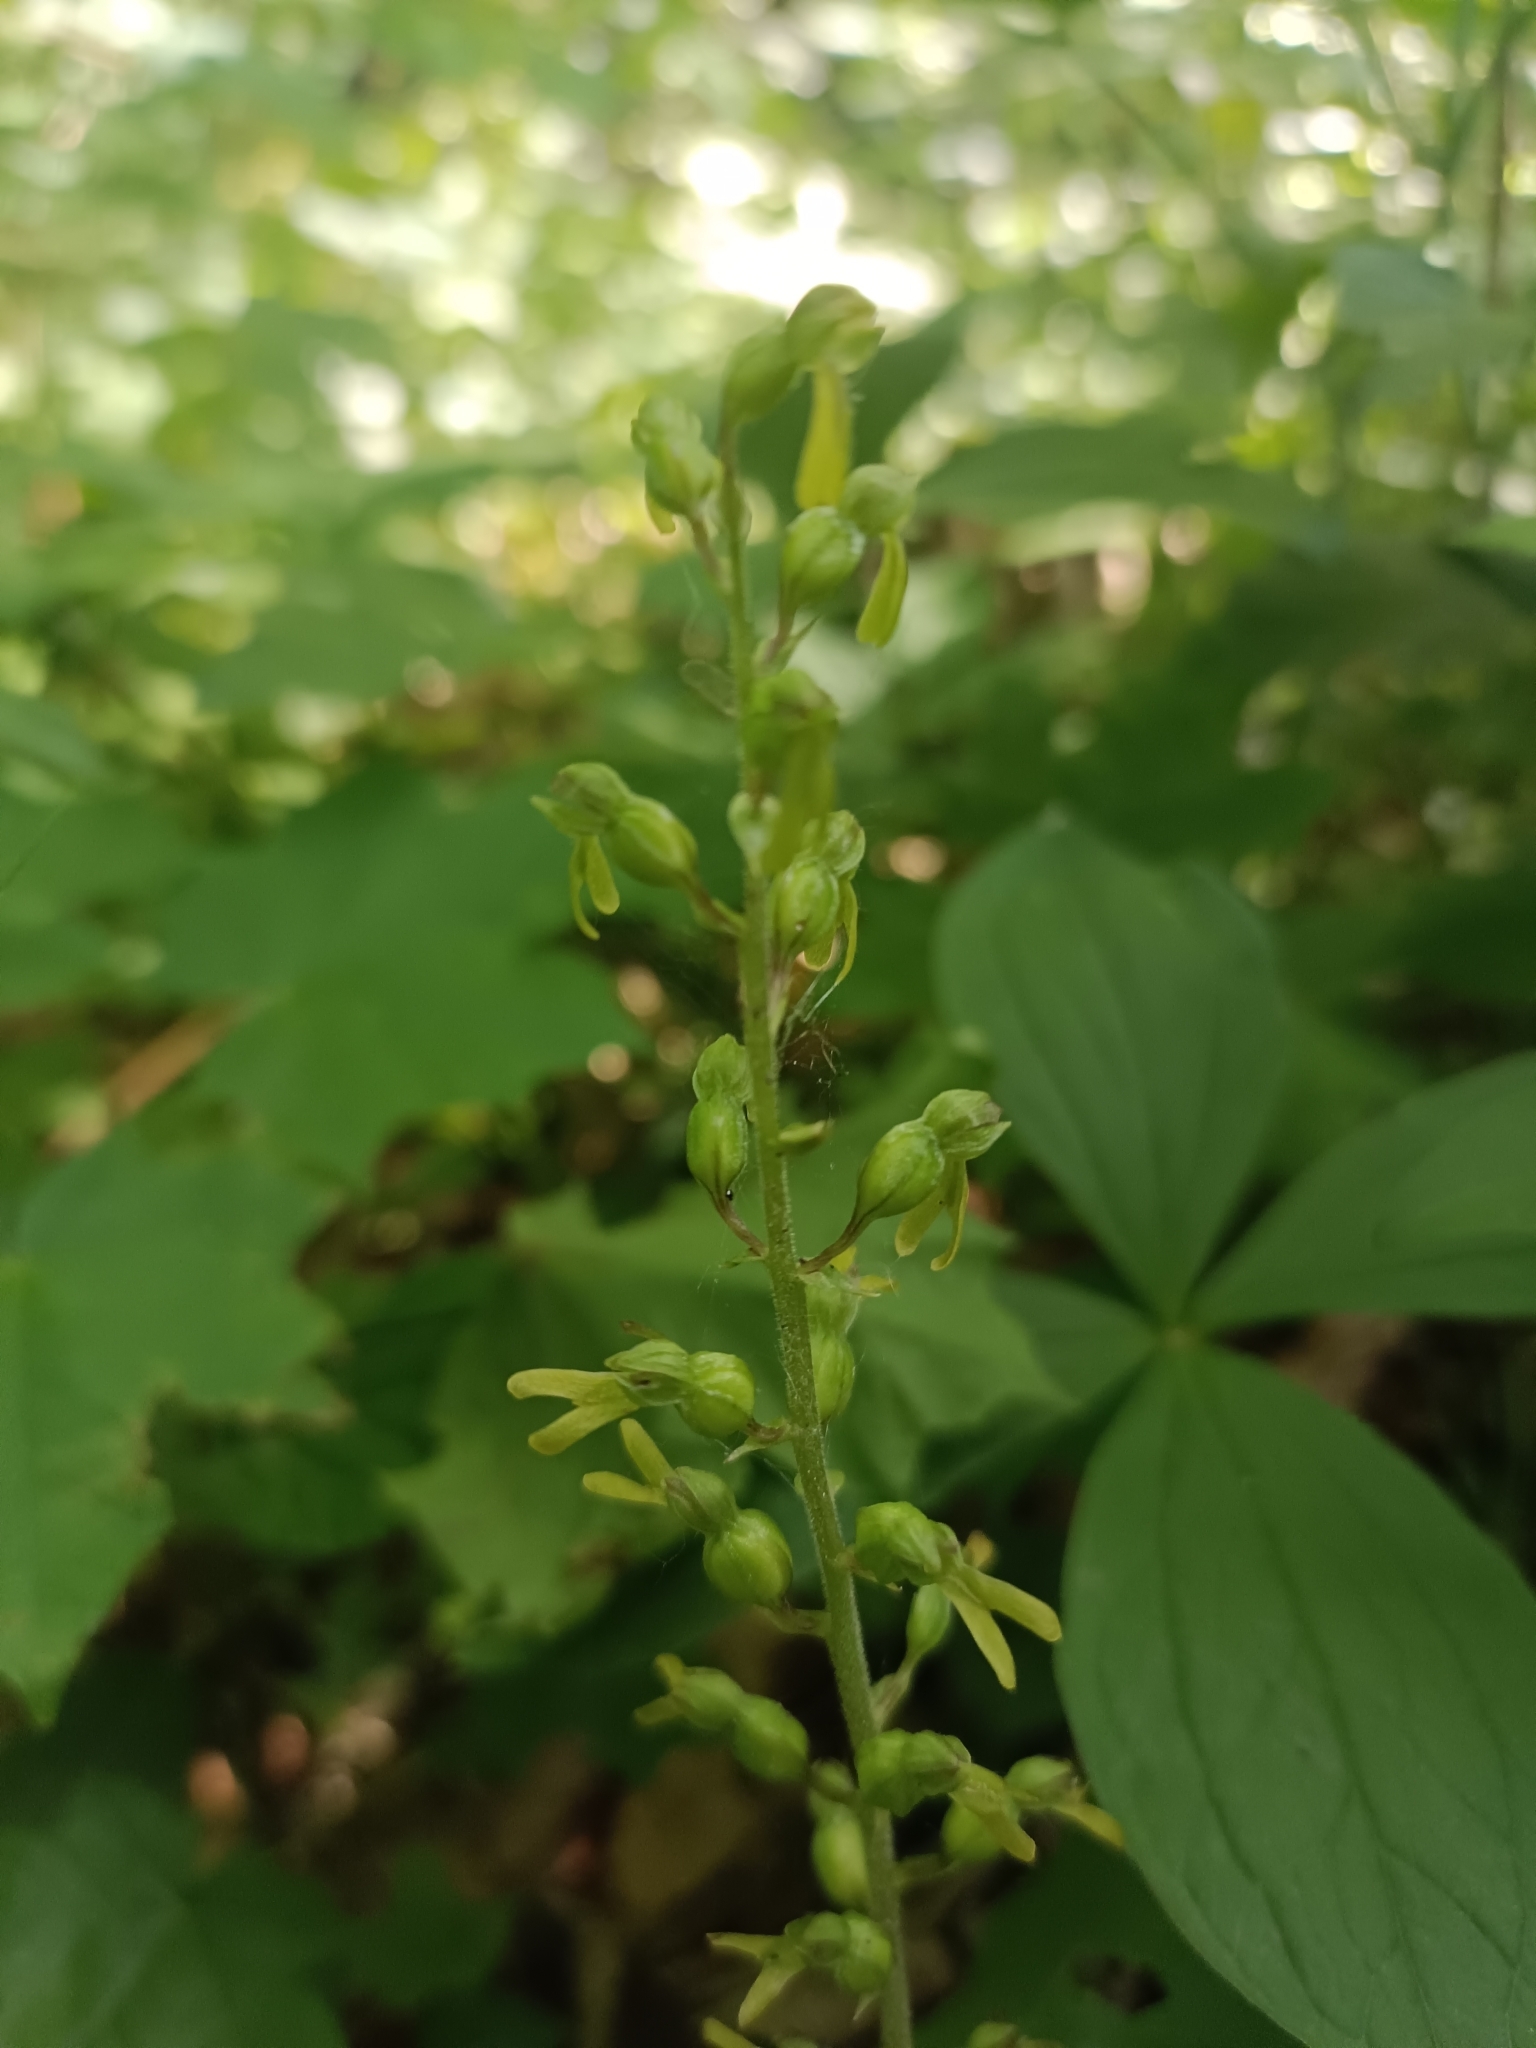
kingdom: Plantae
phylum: Tracheophyta
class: Liliopsida
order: Asparagales
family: Orchidaceae
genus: Neottia
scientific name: Neottia ovata
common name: Common twayblade
